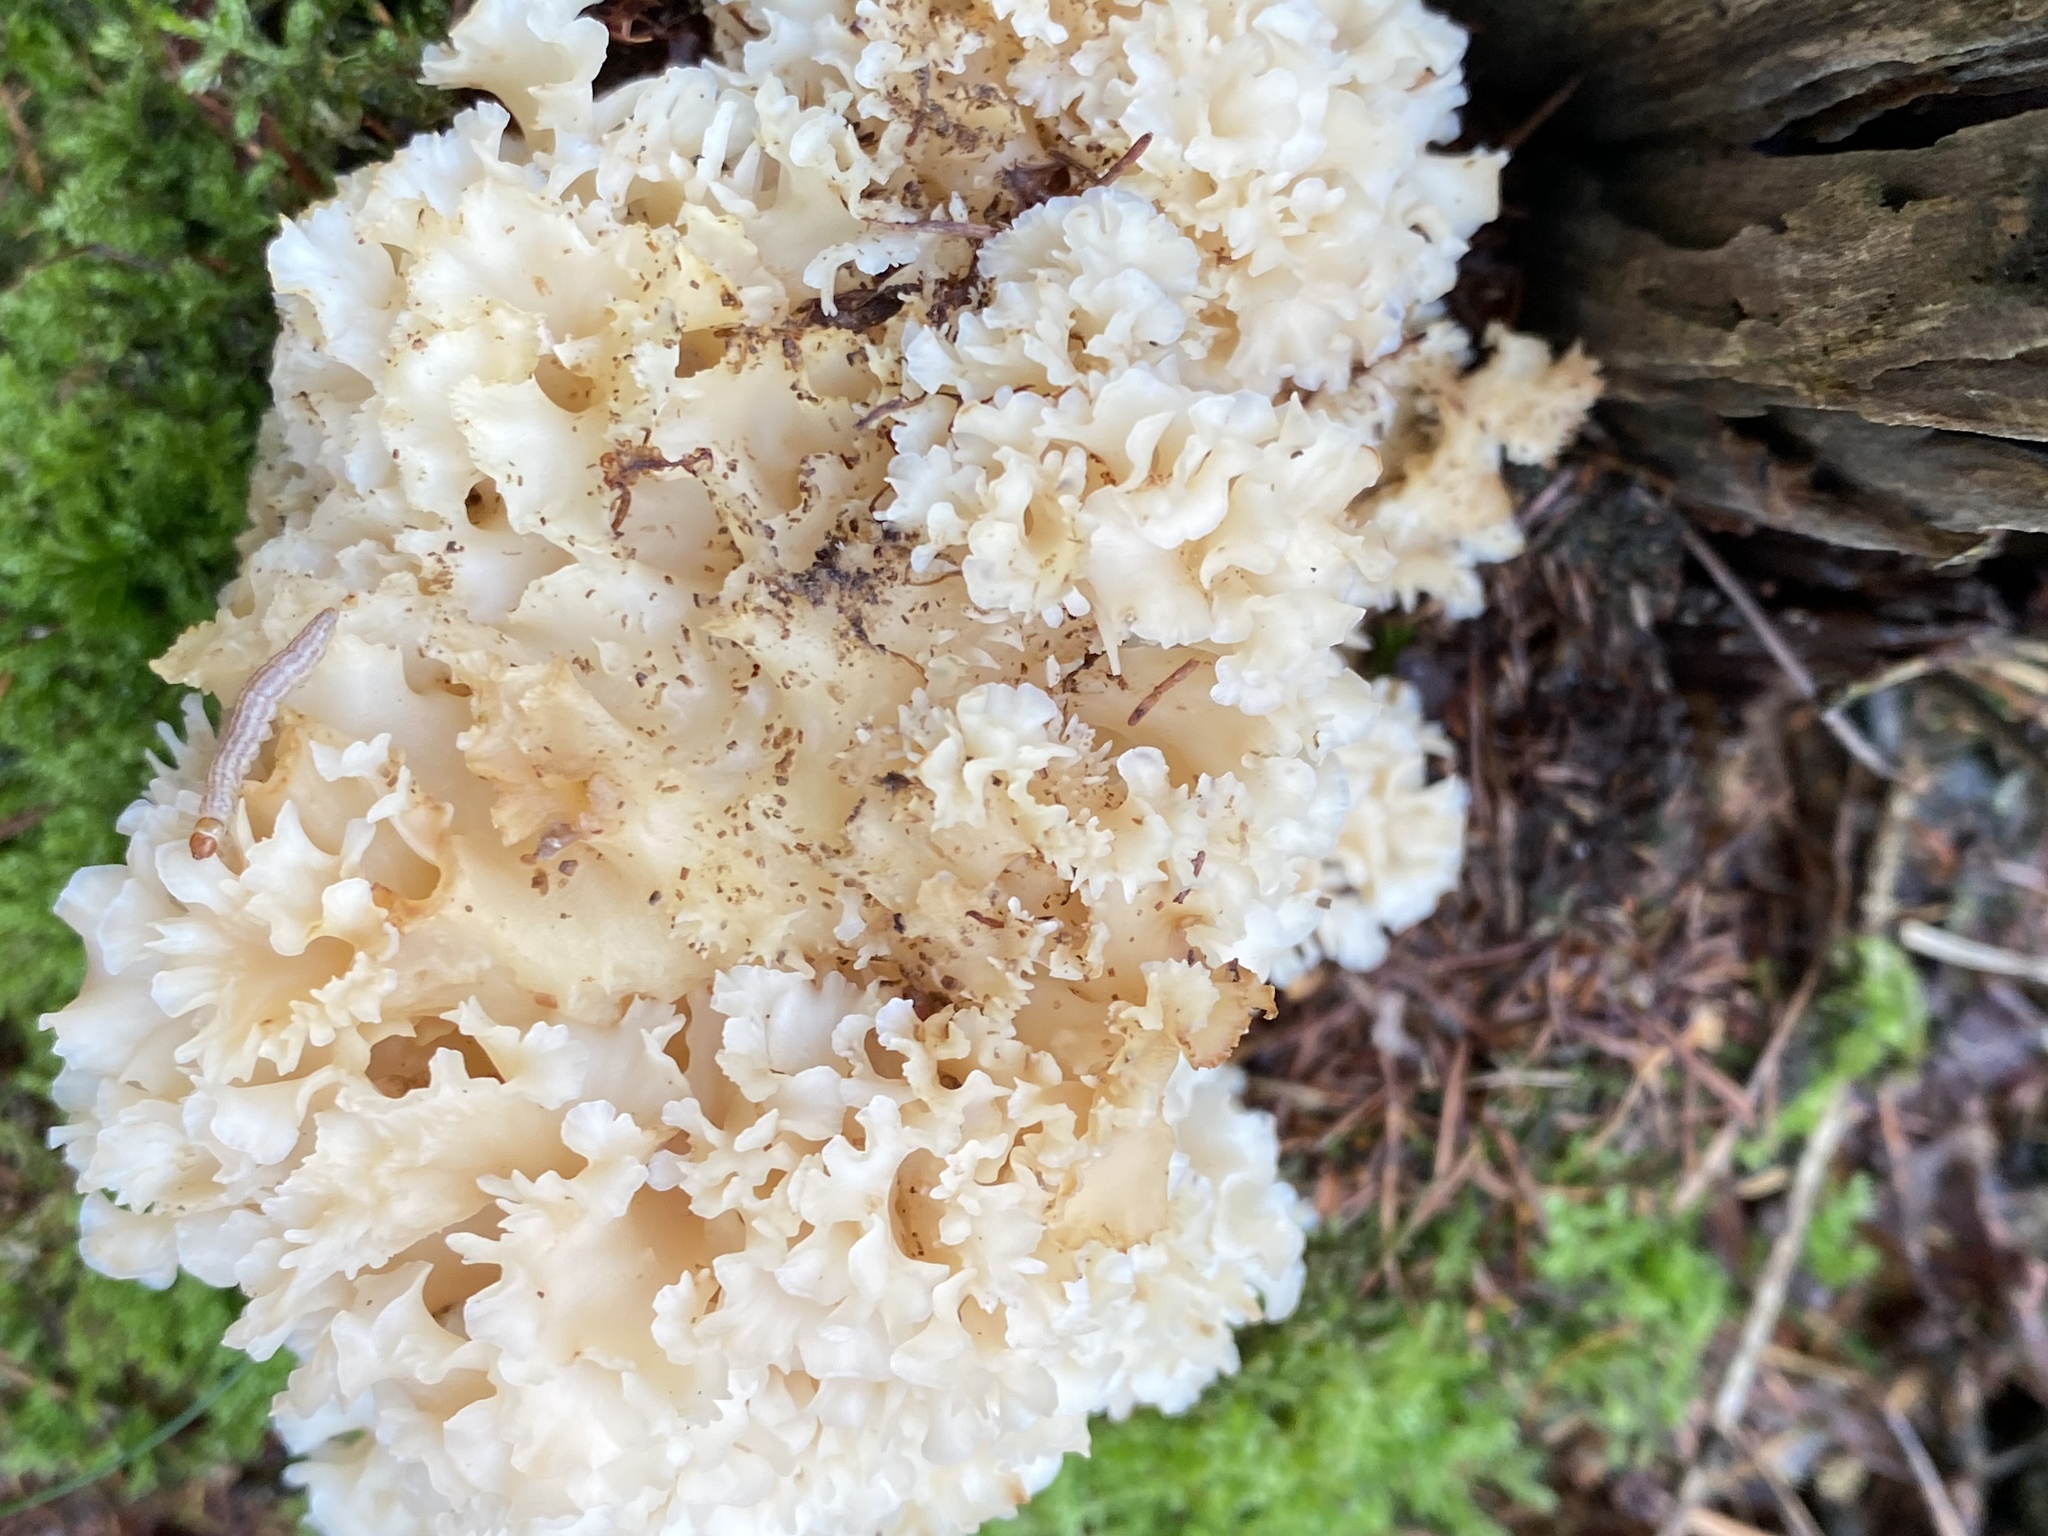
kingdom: Fungi
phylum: Basidiomycota
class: Agaricomycetes
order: Polyporales
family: Sparassidaceae
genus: Sparassis
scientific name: Sparassis crispa
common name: Brain fungus
